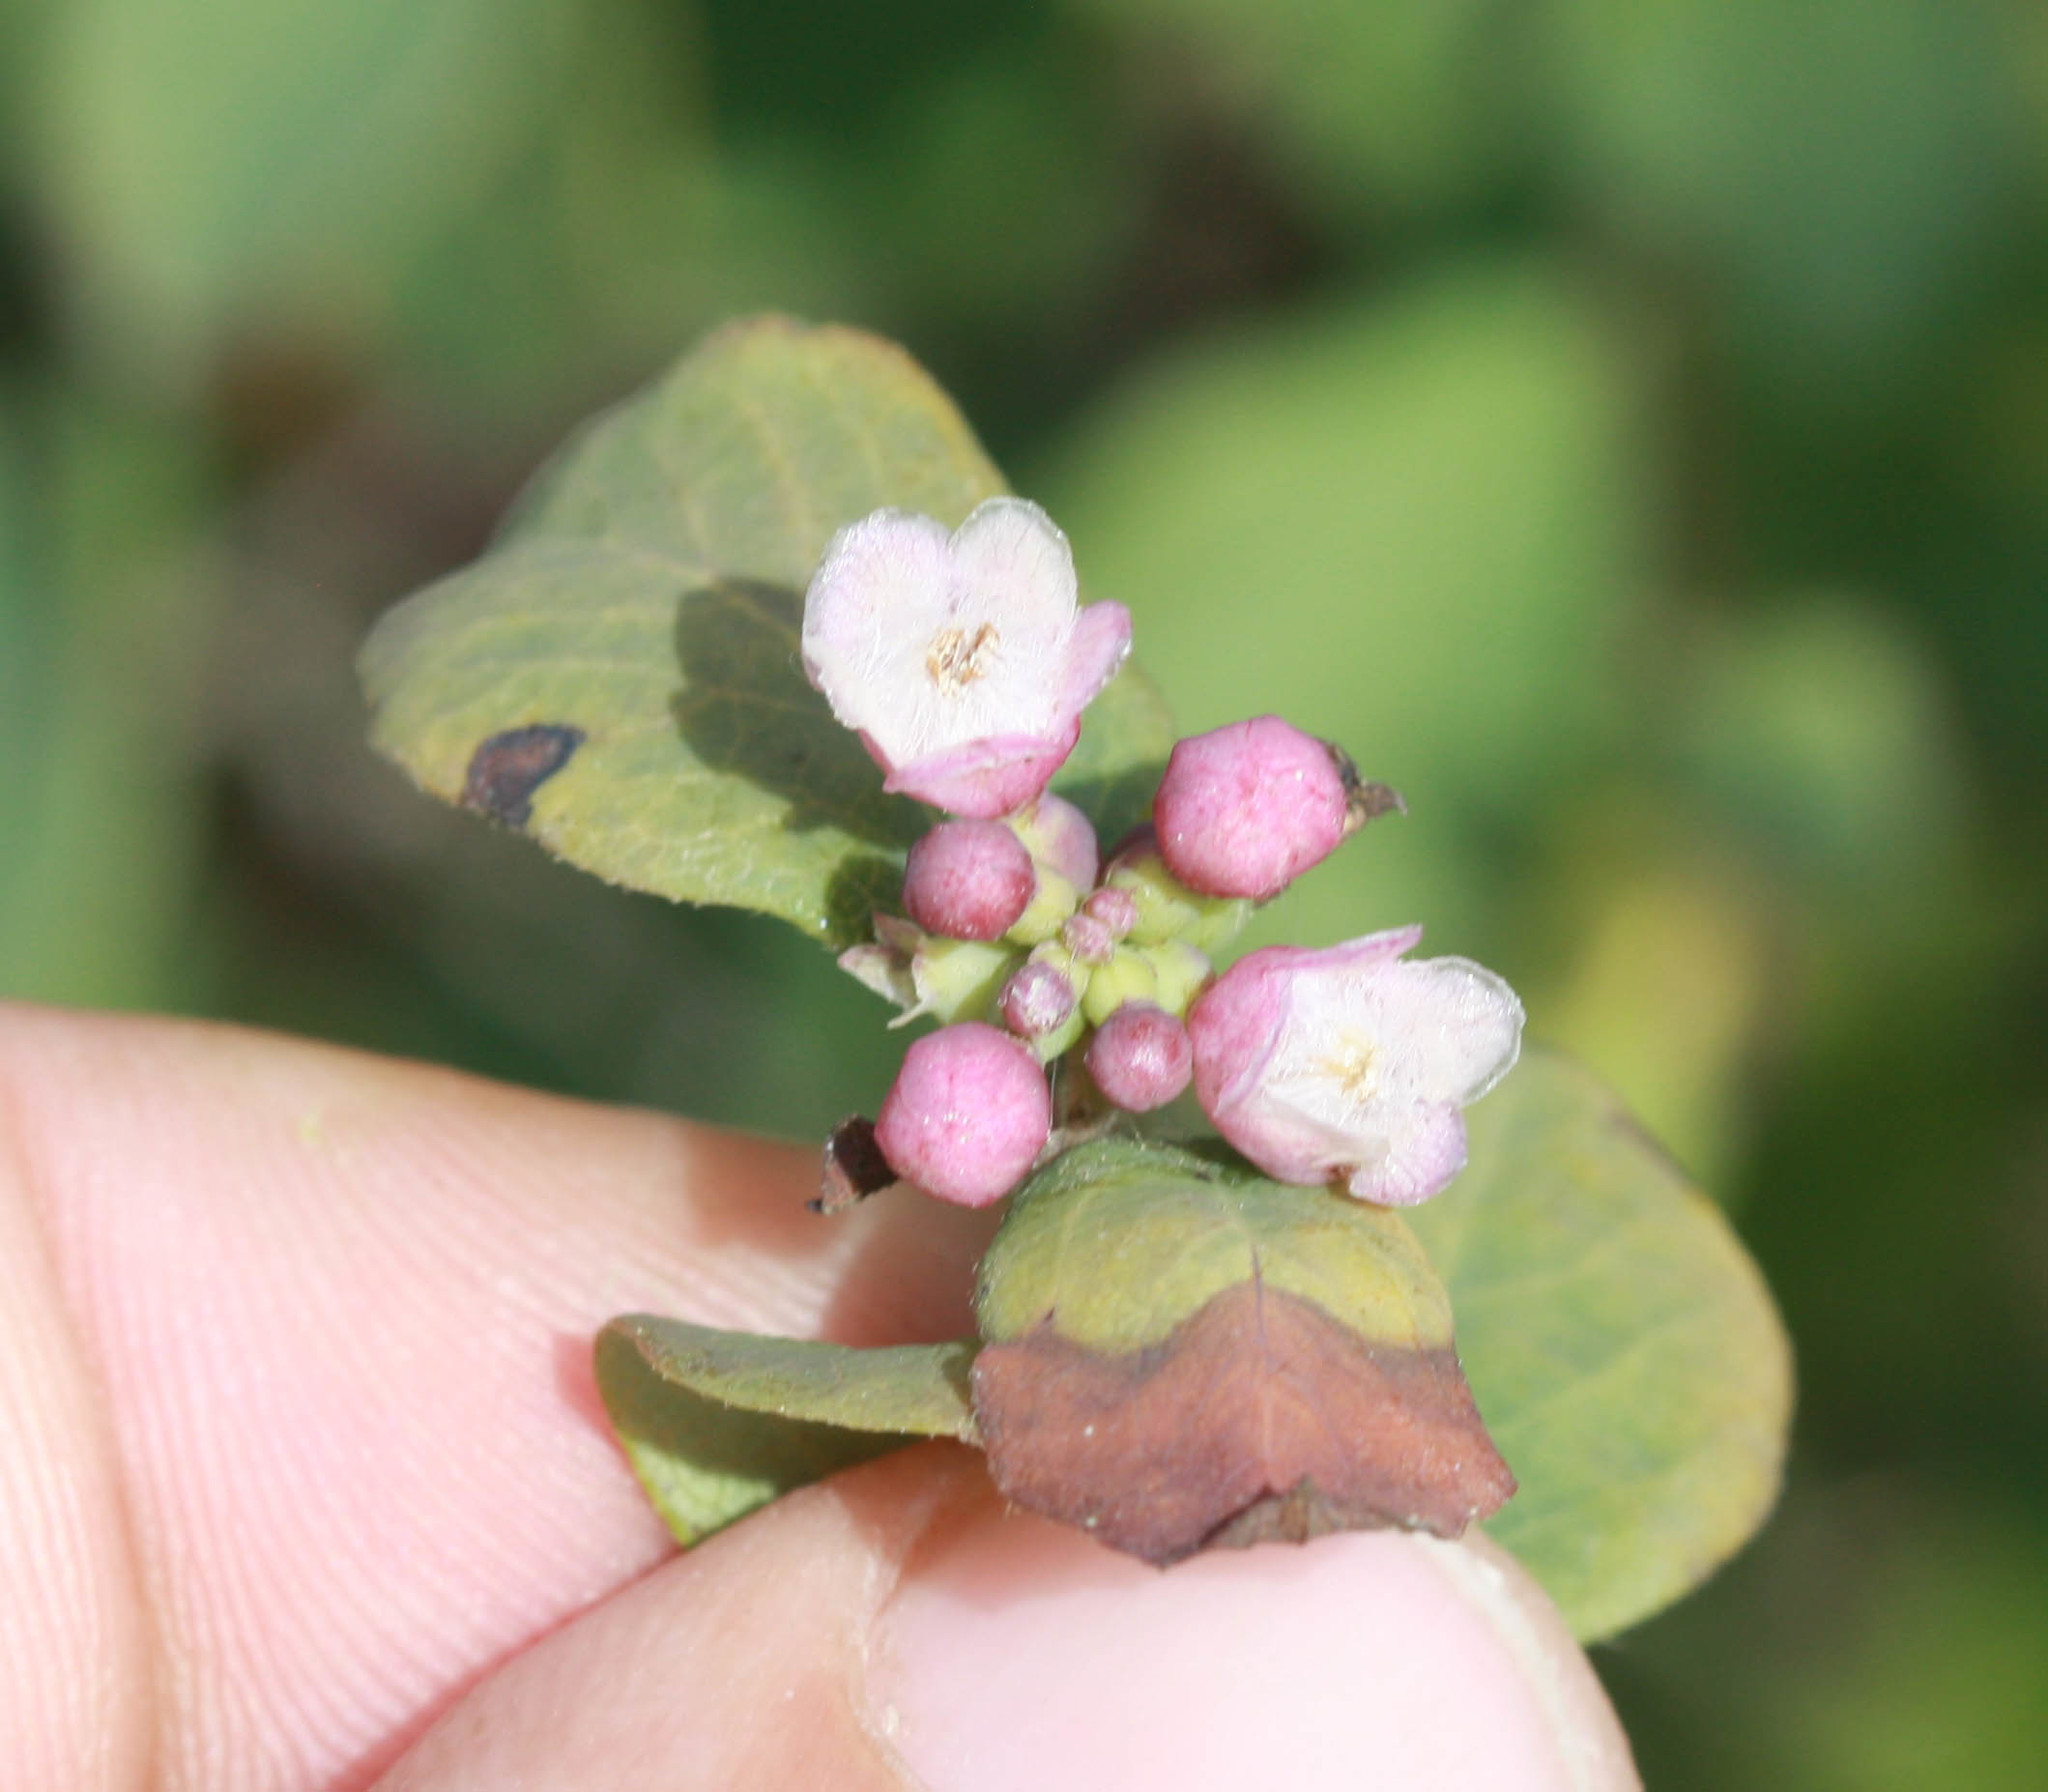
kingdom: Plantae
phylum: Tracheophyta
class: Magnoliopsida
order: Dipsacales
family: Caprifoliaceae
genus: Symphoricarpos
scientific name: Symphoricarpos albus
